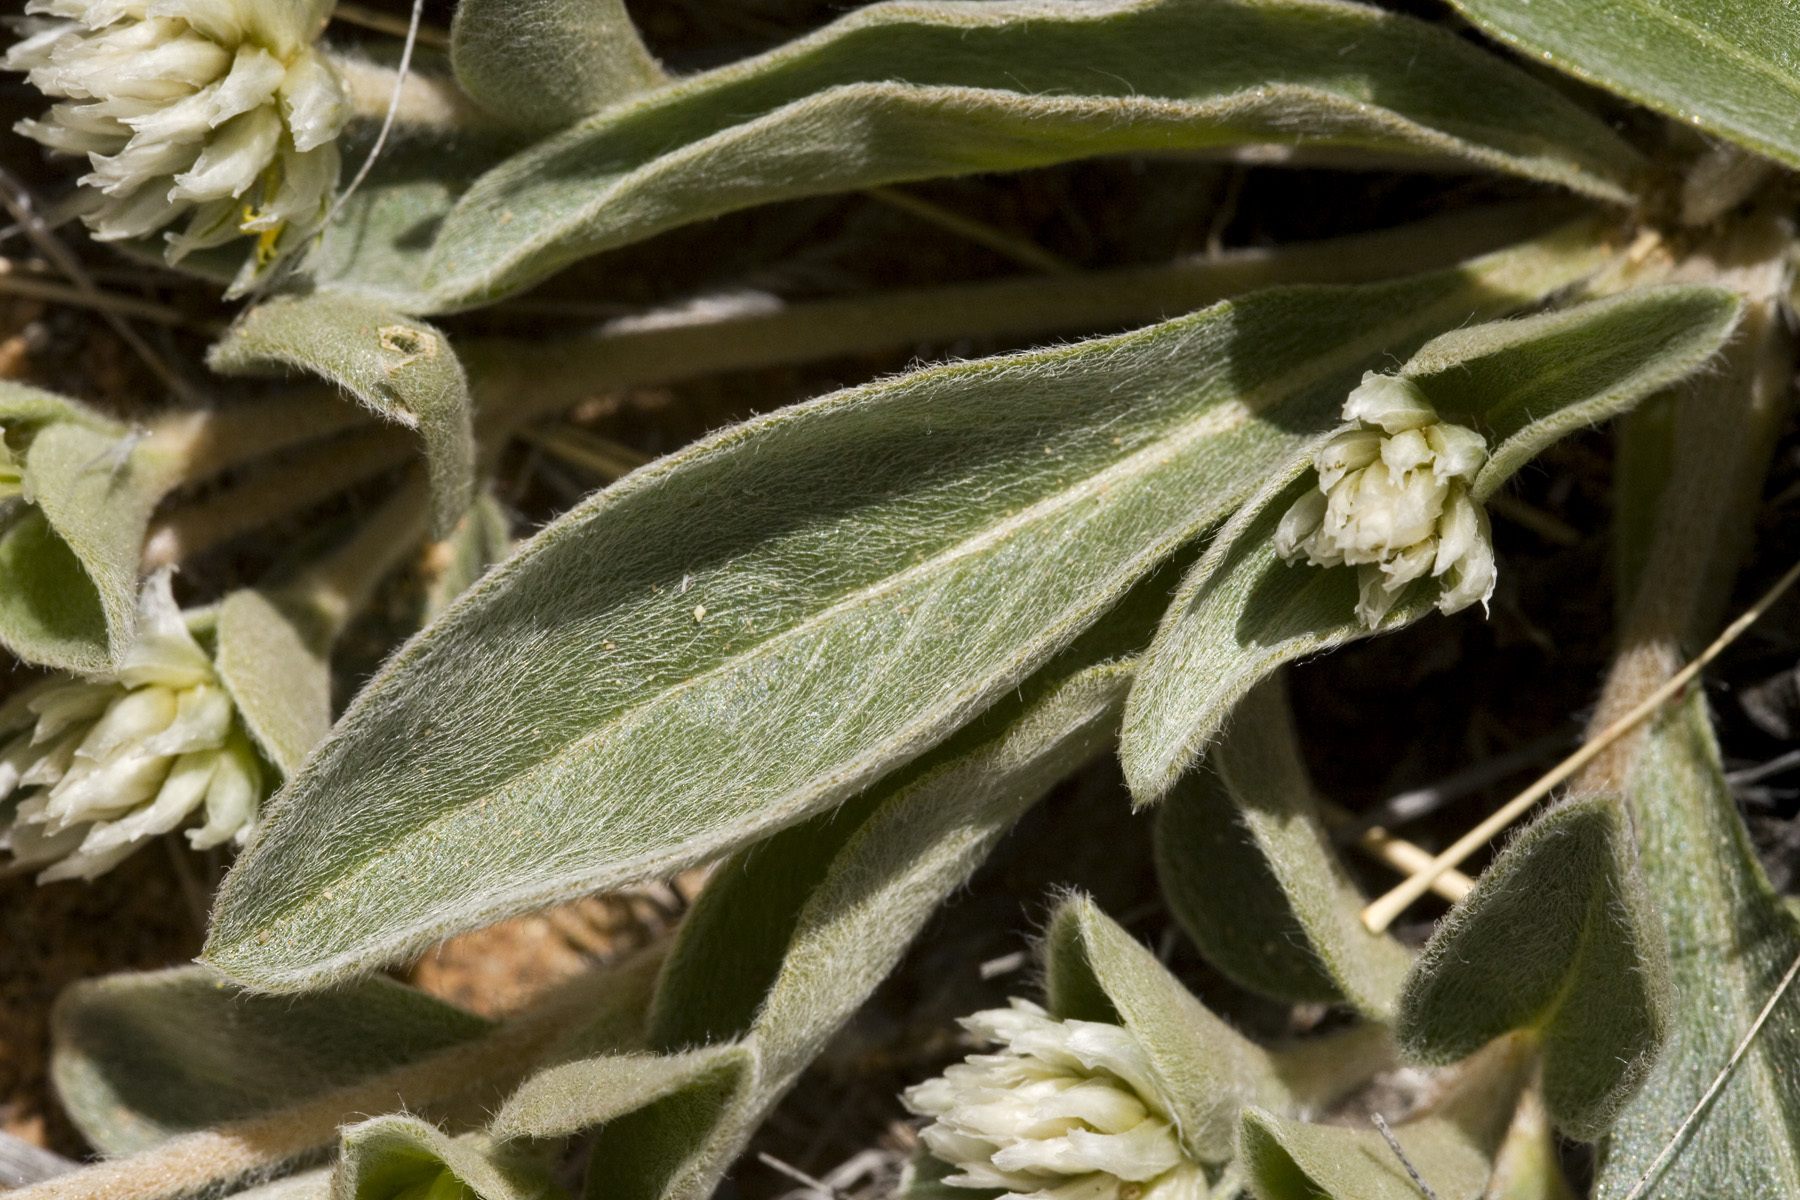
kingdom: Plantae
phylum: Tracheophyta
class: Magnoliopsida
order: Caryophyllales
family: Amaranthaceae
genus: Gomphrena
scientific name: Gomphrena caespitosa
